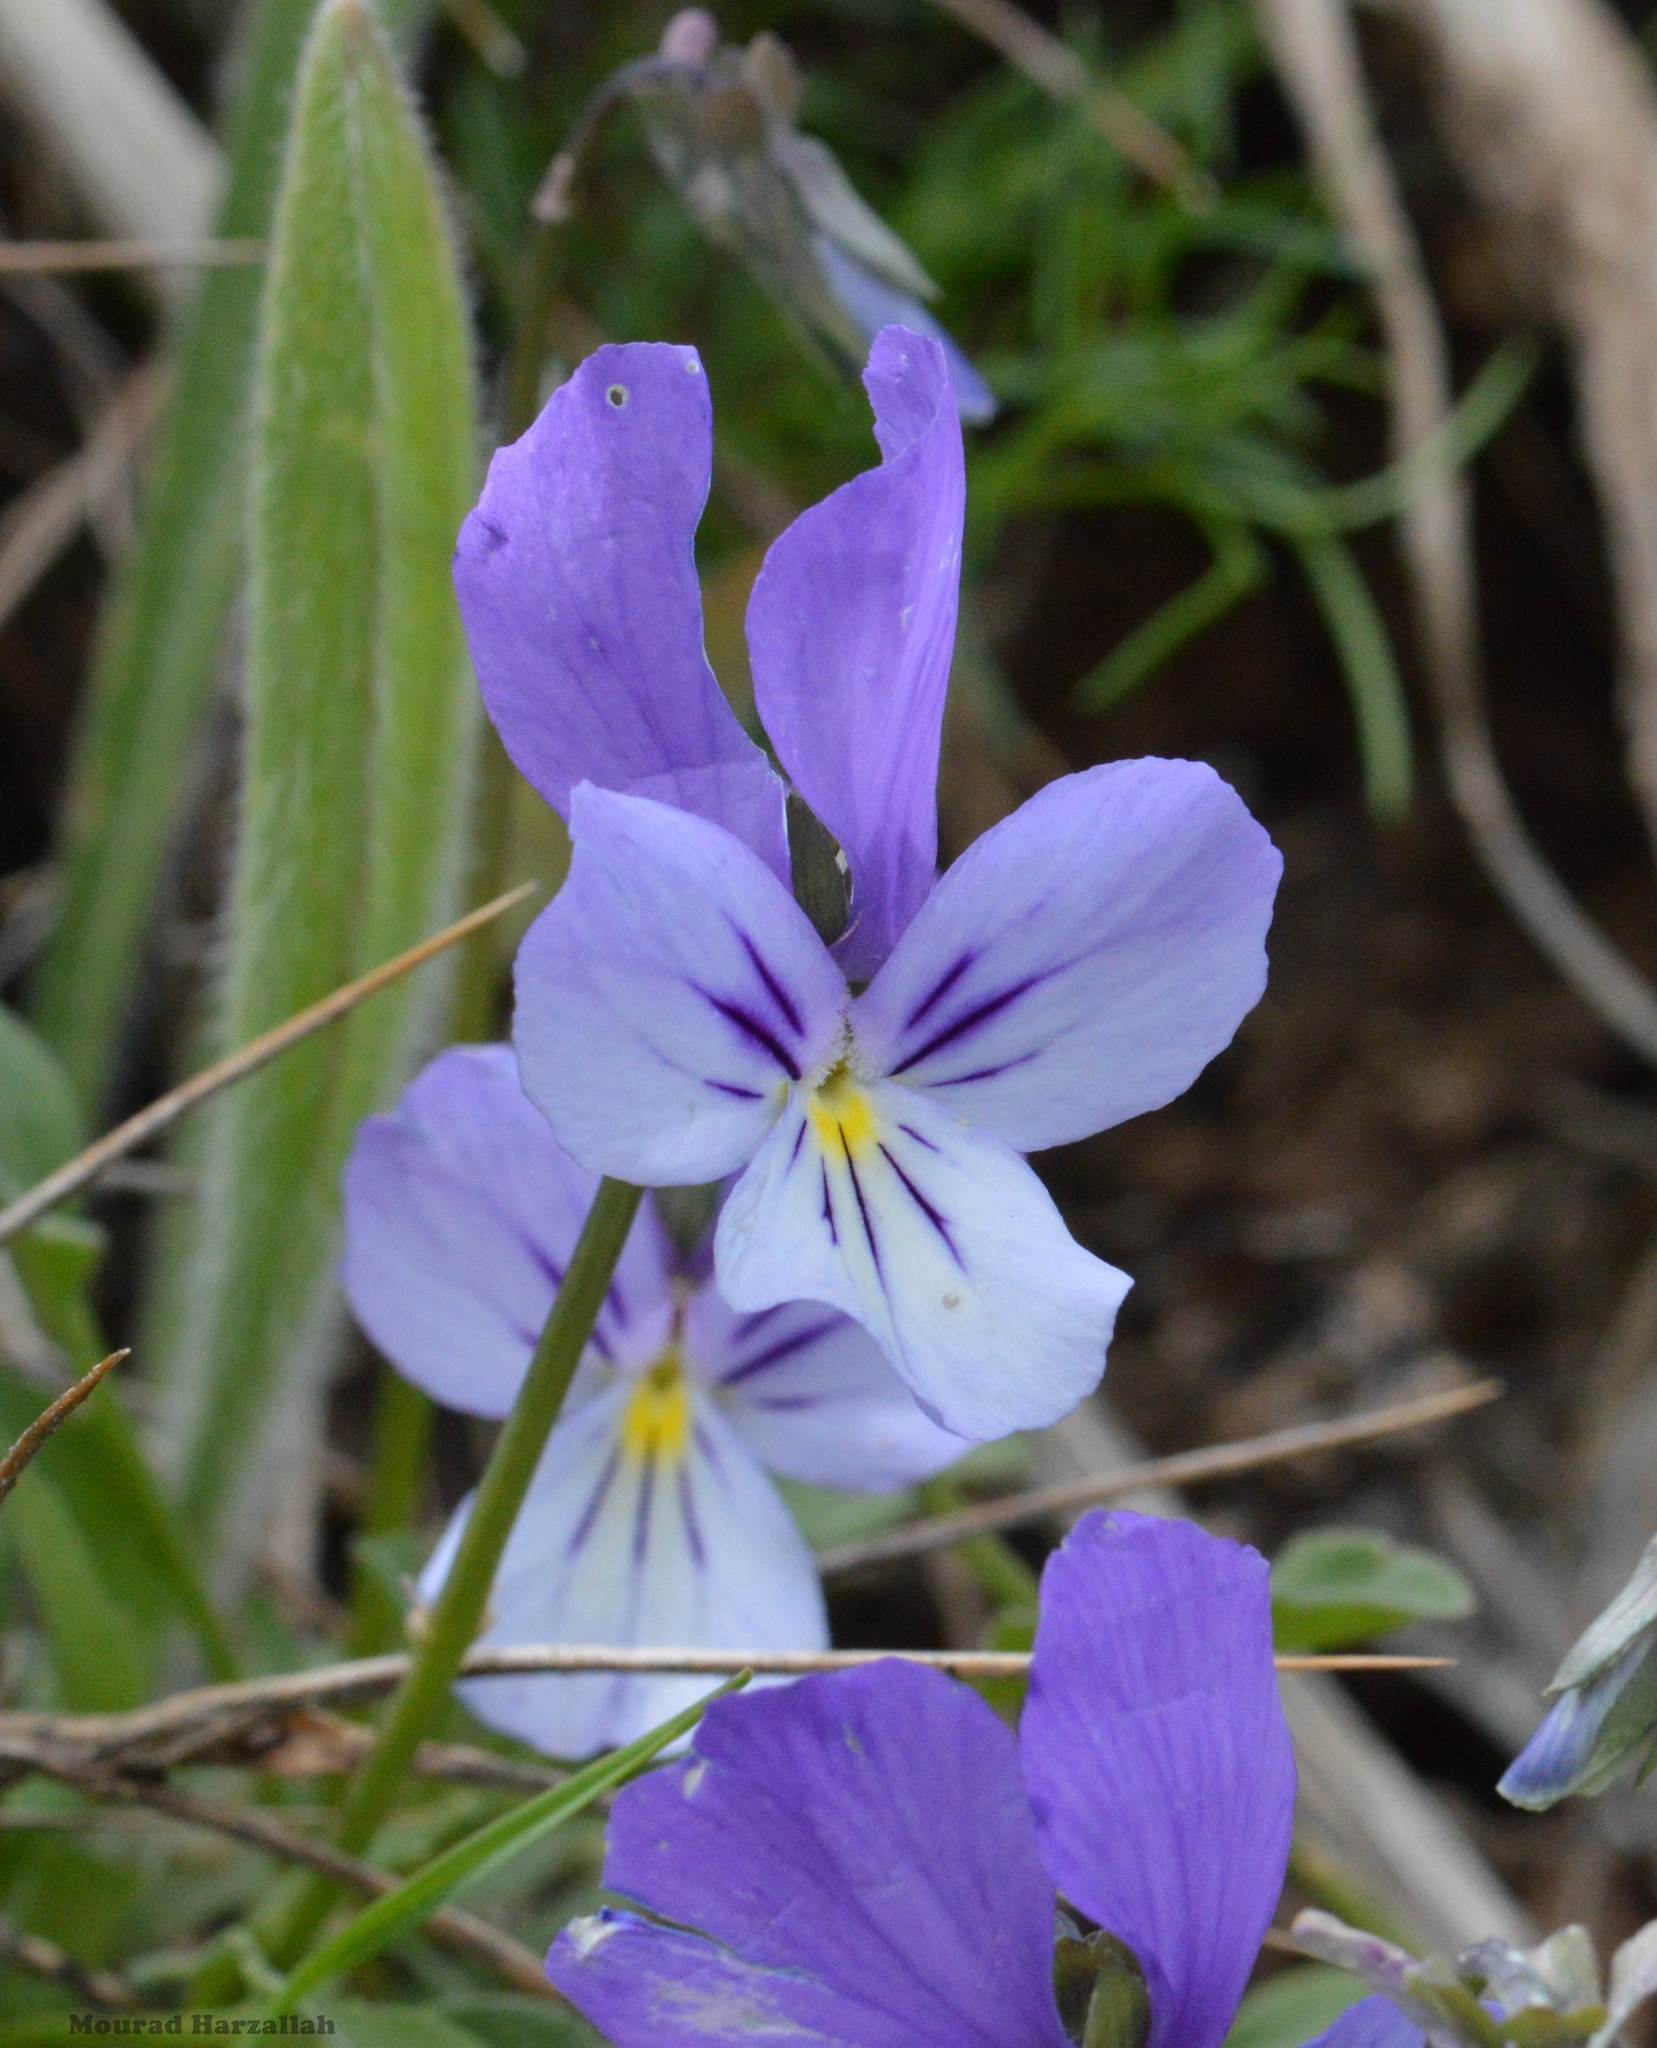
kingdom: Plantae
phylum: Tracheophyta
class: Magnoliopsida
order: Malpighiales
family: Violaceae
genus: Viola
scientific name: Viola munbyana
